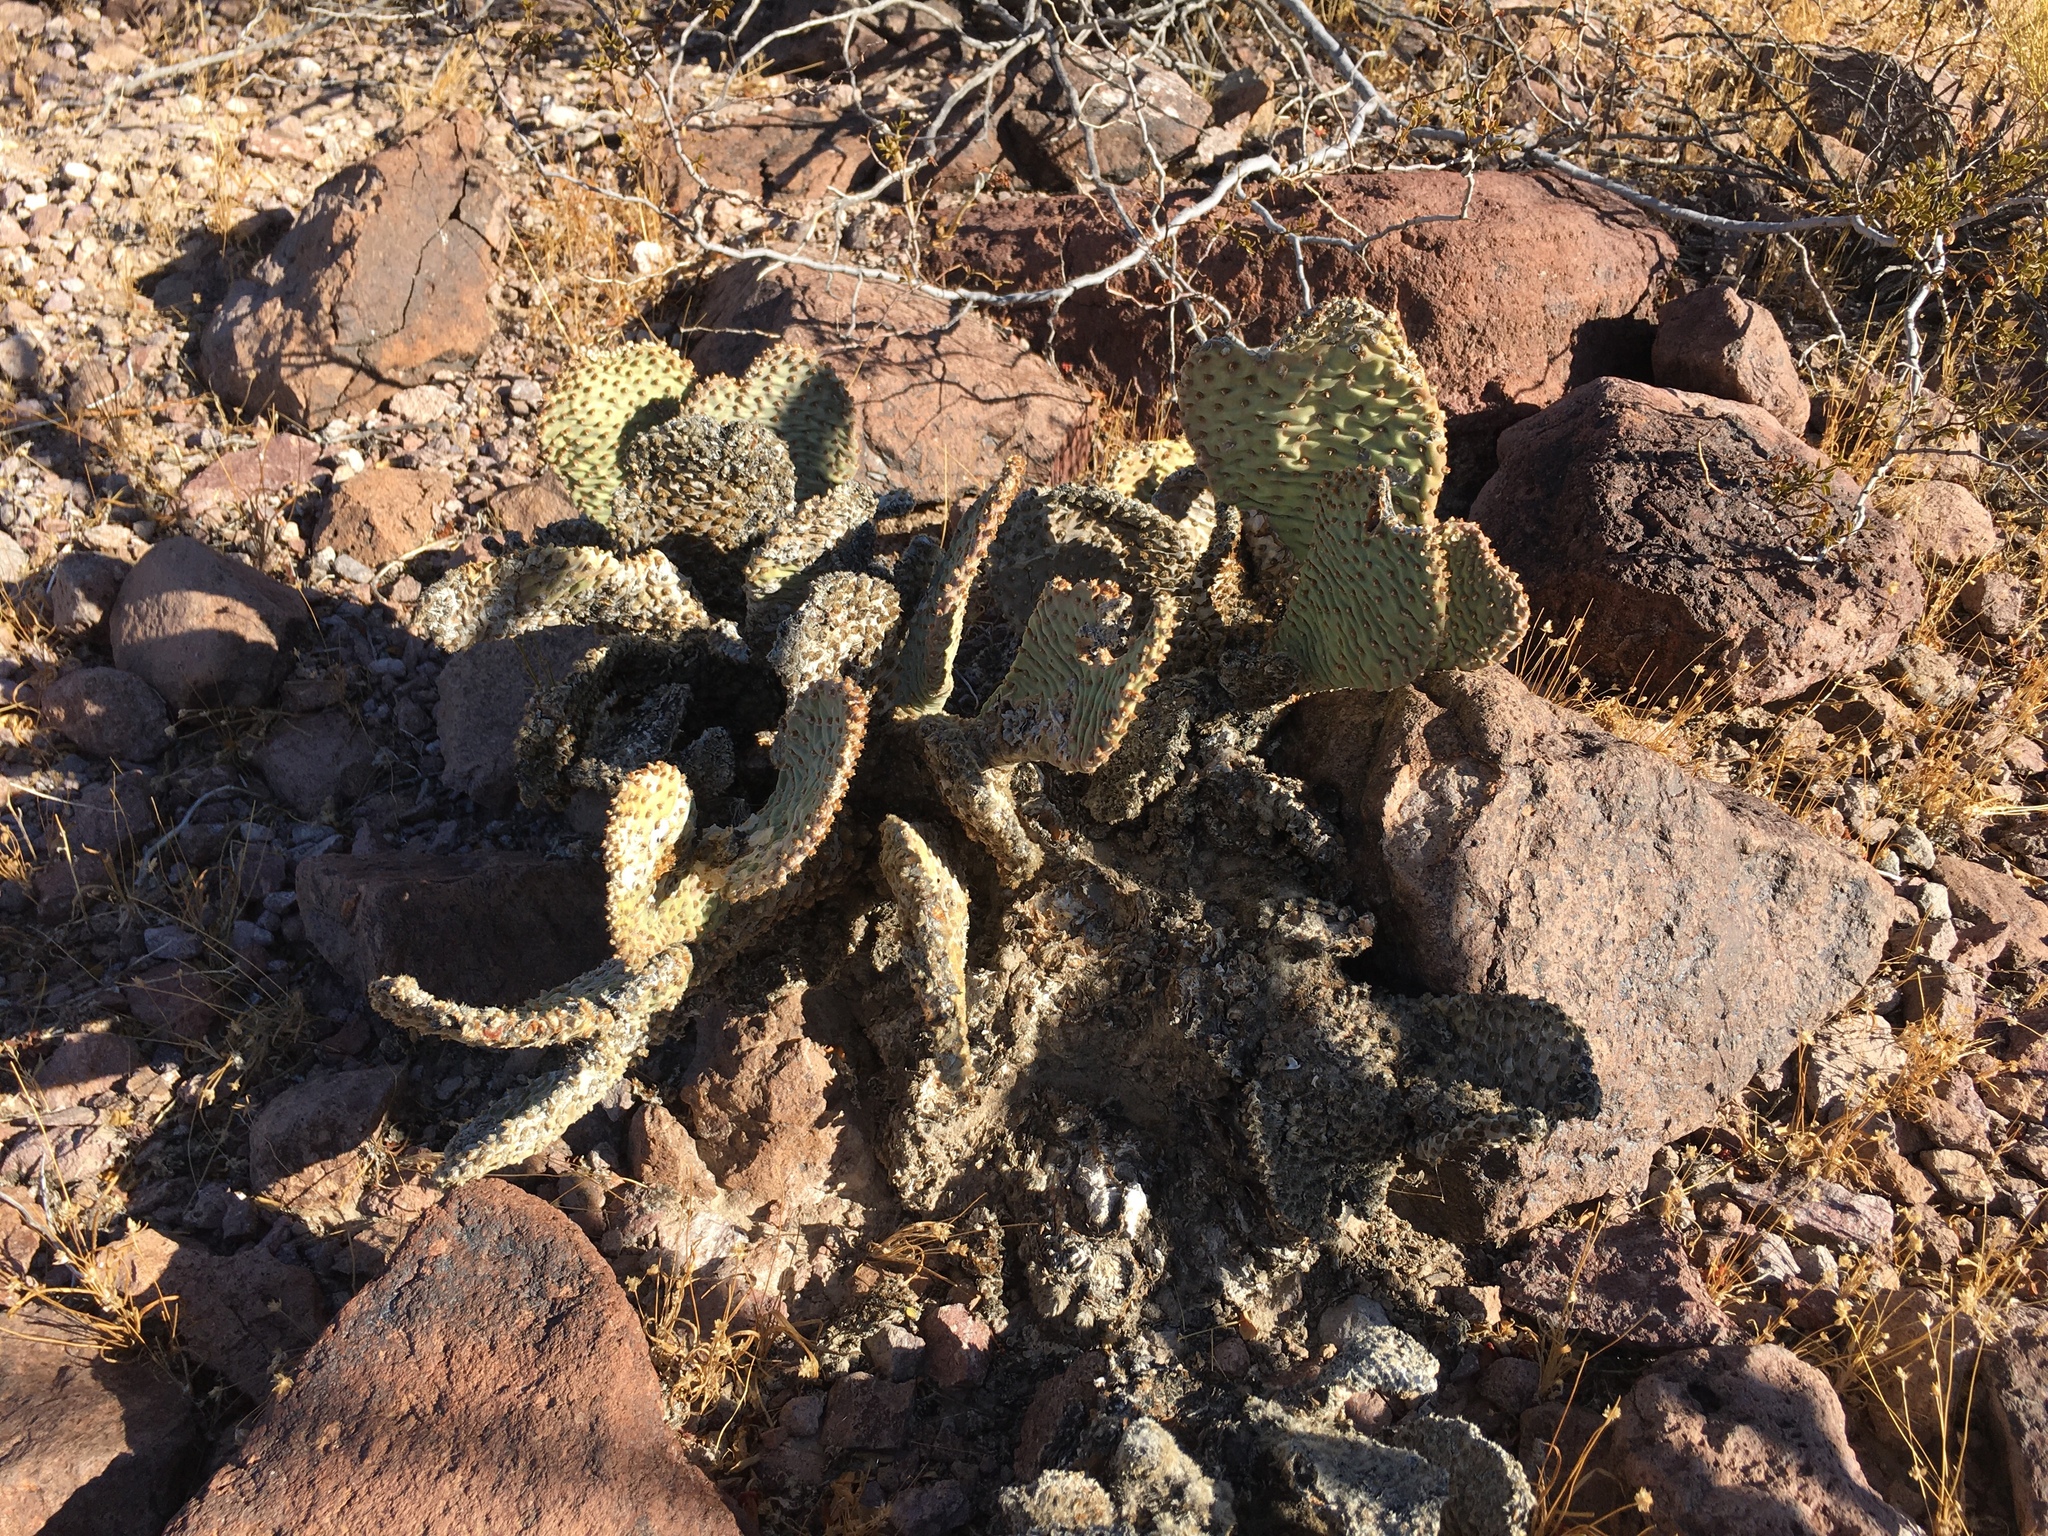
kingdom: Plantae
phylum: Tracheophyta
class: Magnoliopsida
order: Caryophyllales
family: Cactaceae
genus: Opuntia
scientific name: Opuntia basilaris
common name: Beavertail prickly-pear
